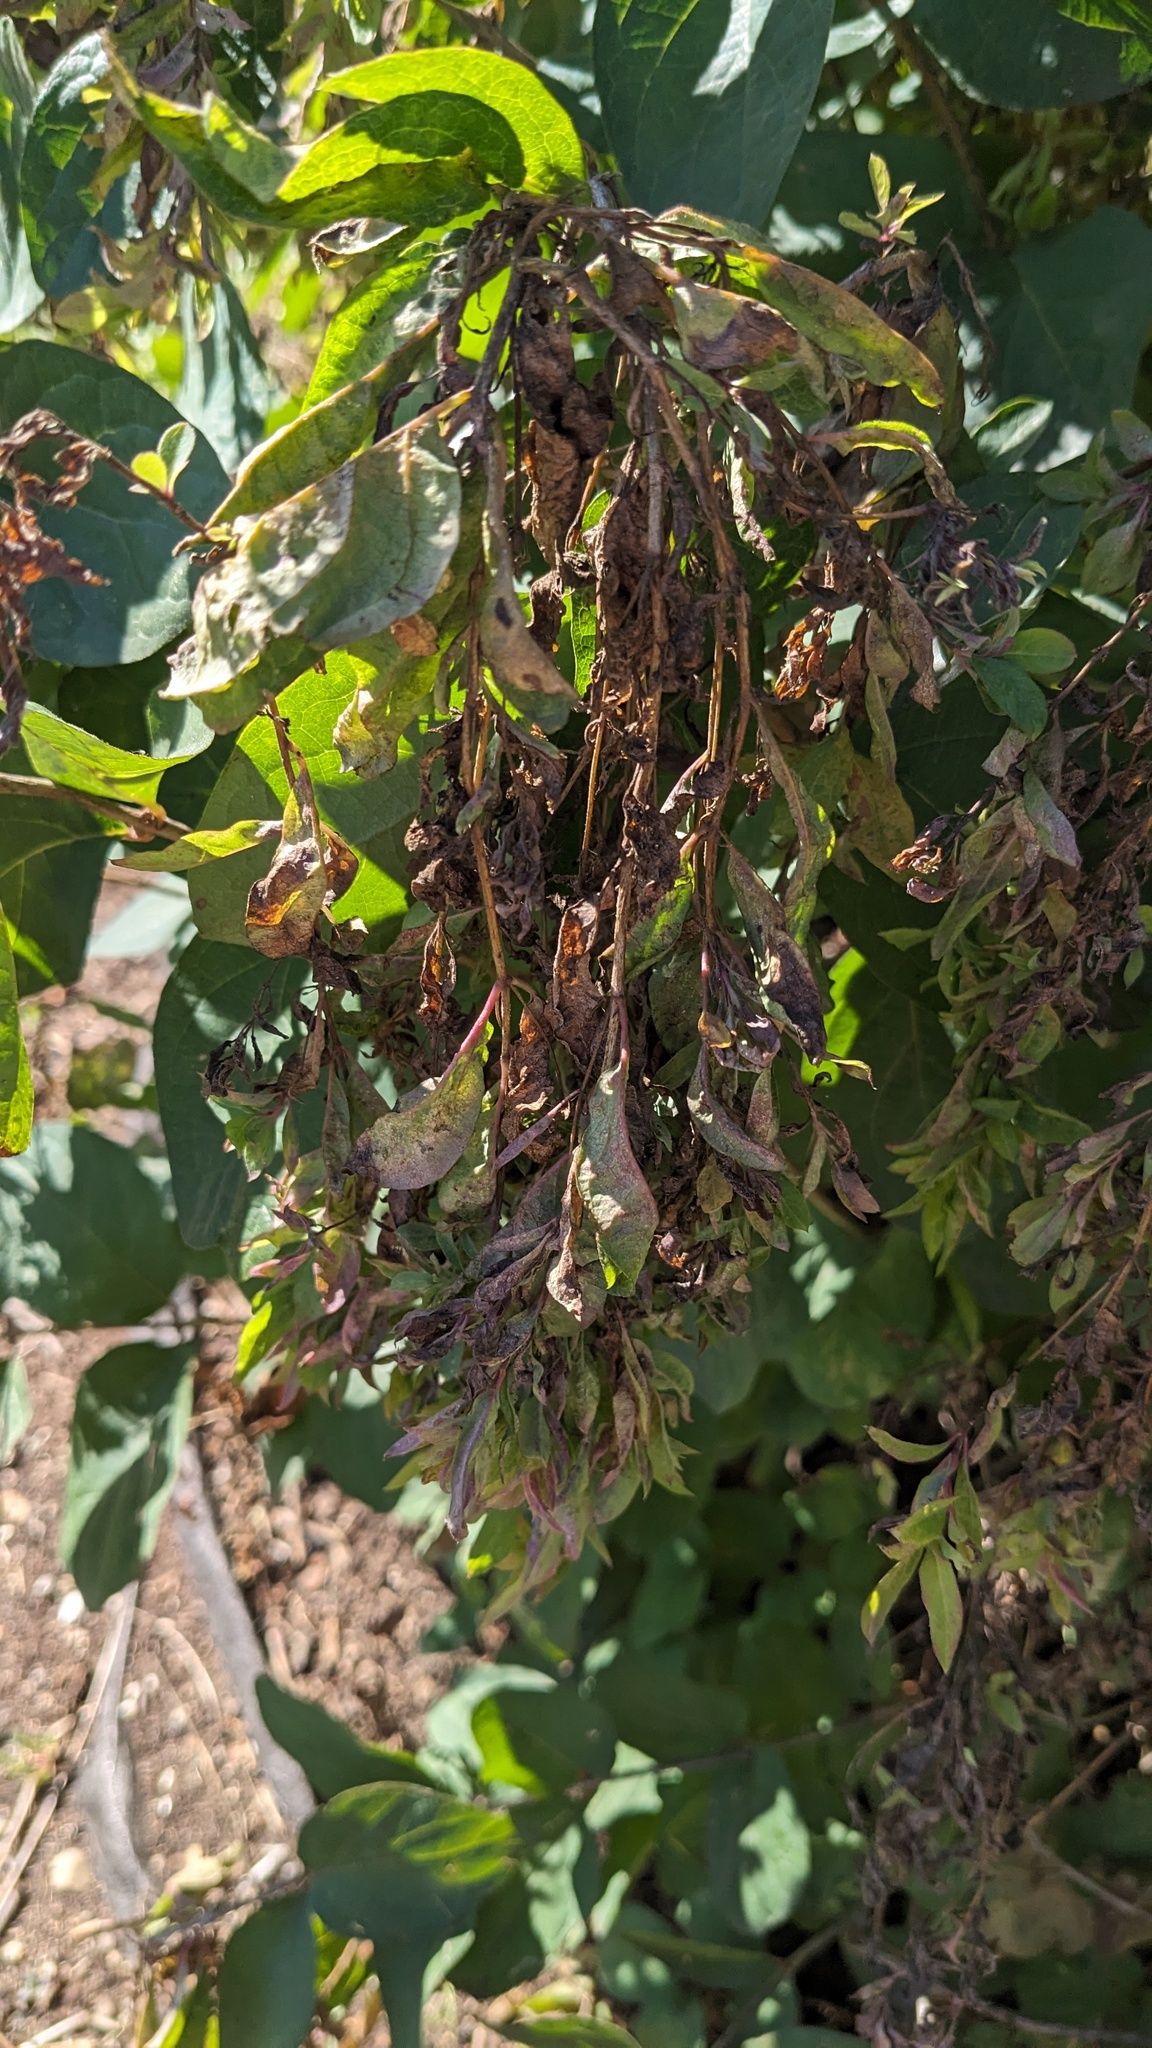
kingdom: Animalia
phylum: Arthropoda
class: Insecta
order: Hemiptera
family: Aphididae
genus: Hyadaphis
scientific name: Hyadaphis tataricae
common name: Honeysuckle witches' broom aphid
